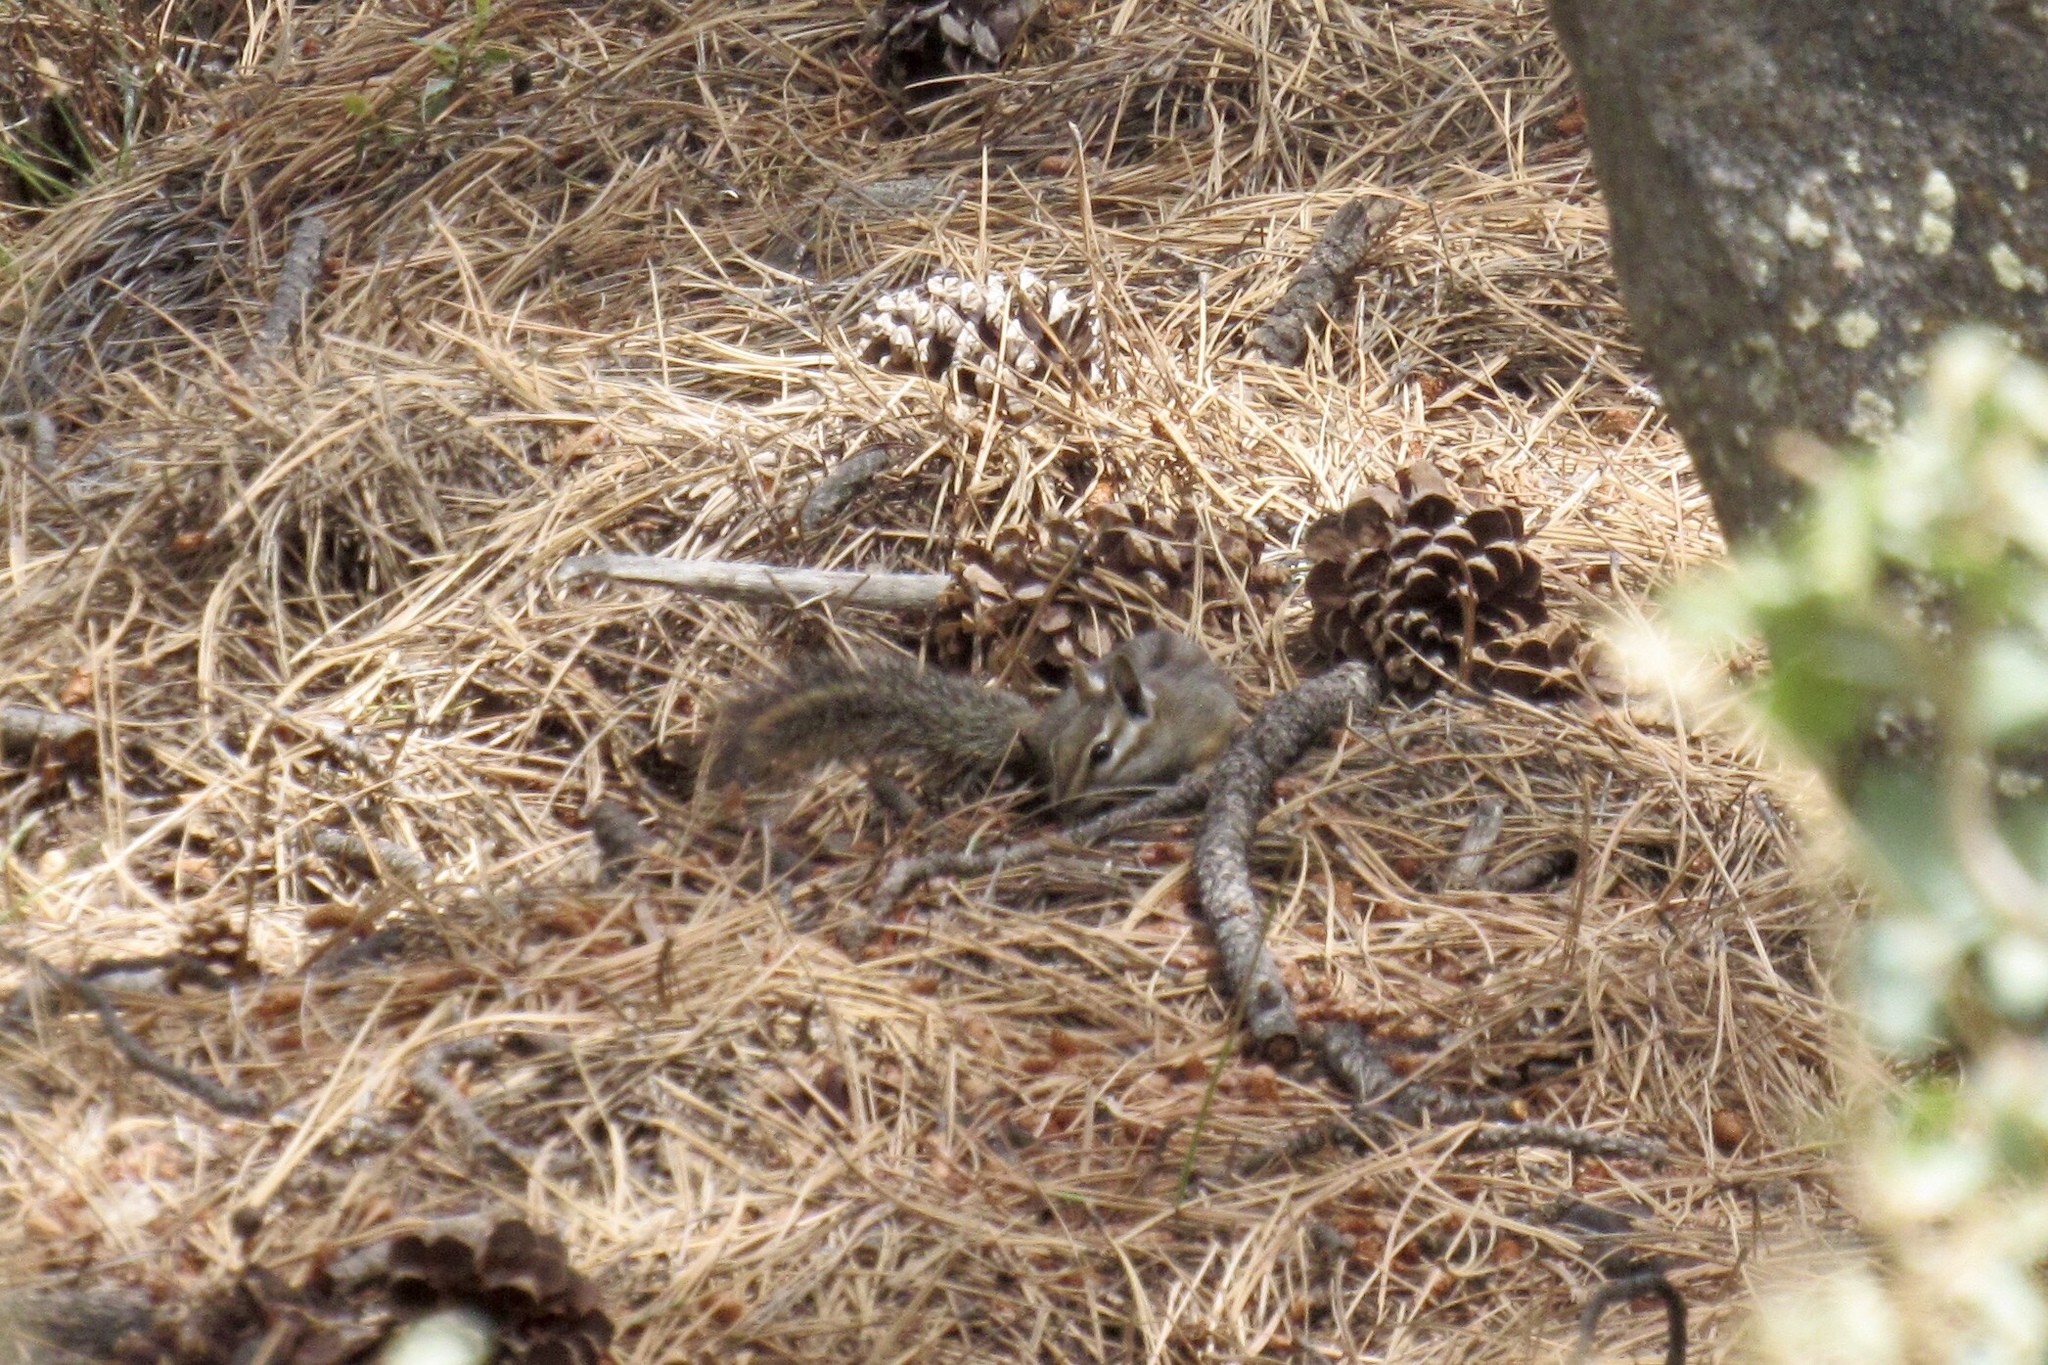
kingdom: Animalia
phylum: Chordata
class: Mammalia
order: Rodentia
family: Sciuridae
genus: Tamias
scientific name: Tamias dorsalis
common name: Cliff chipmunk
